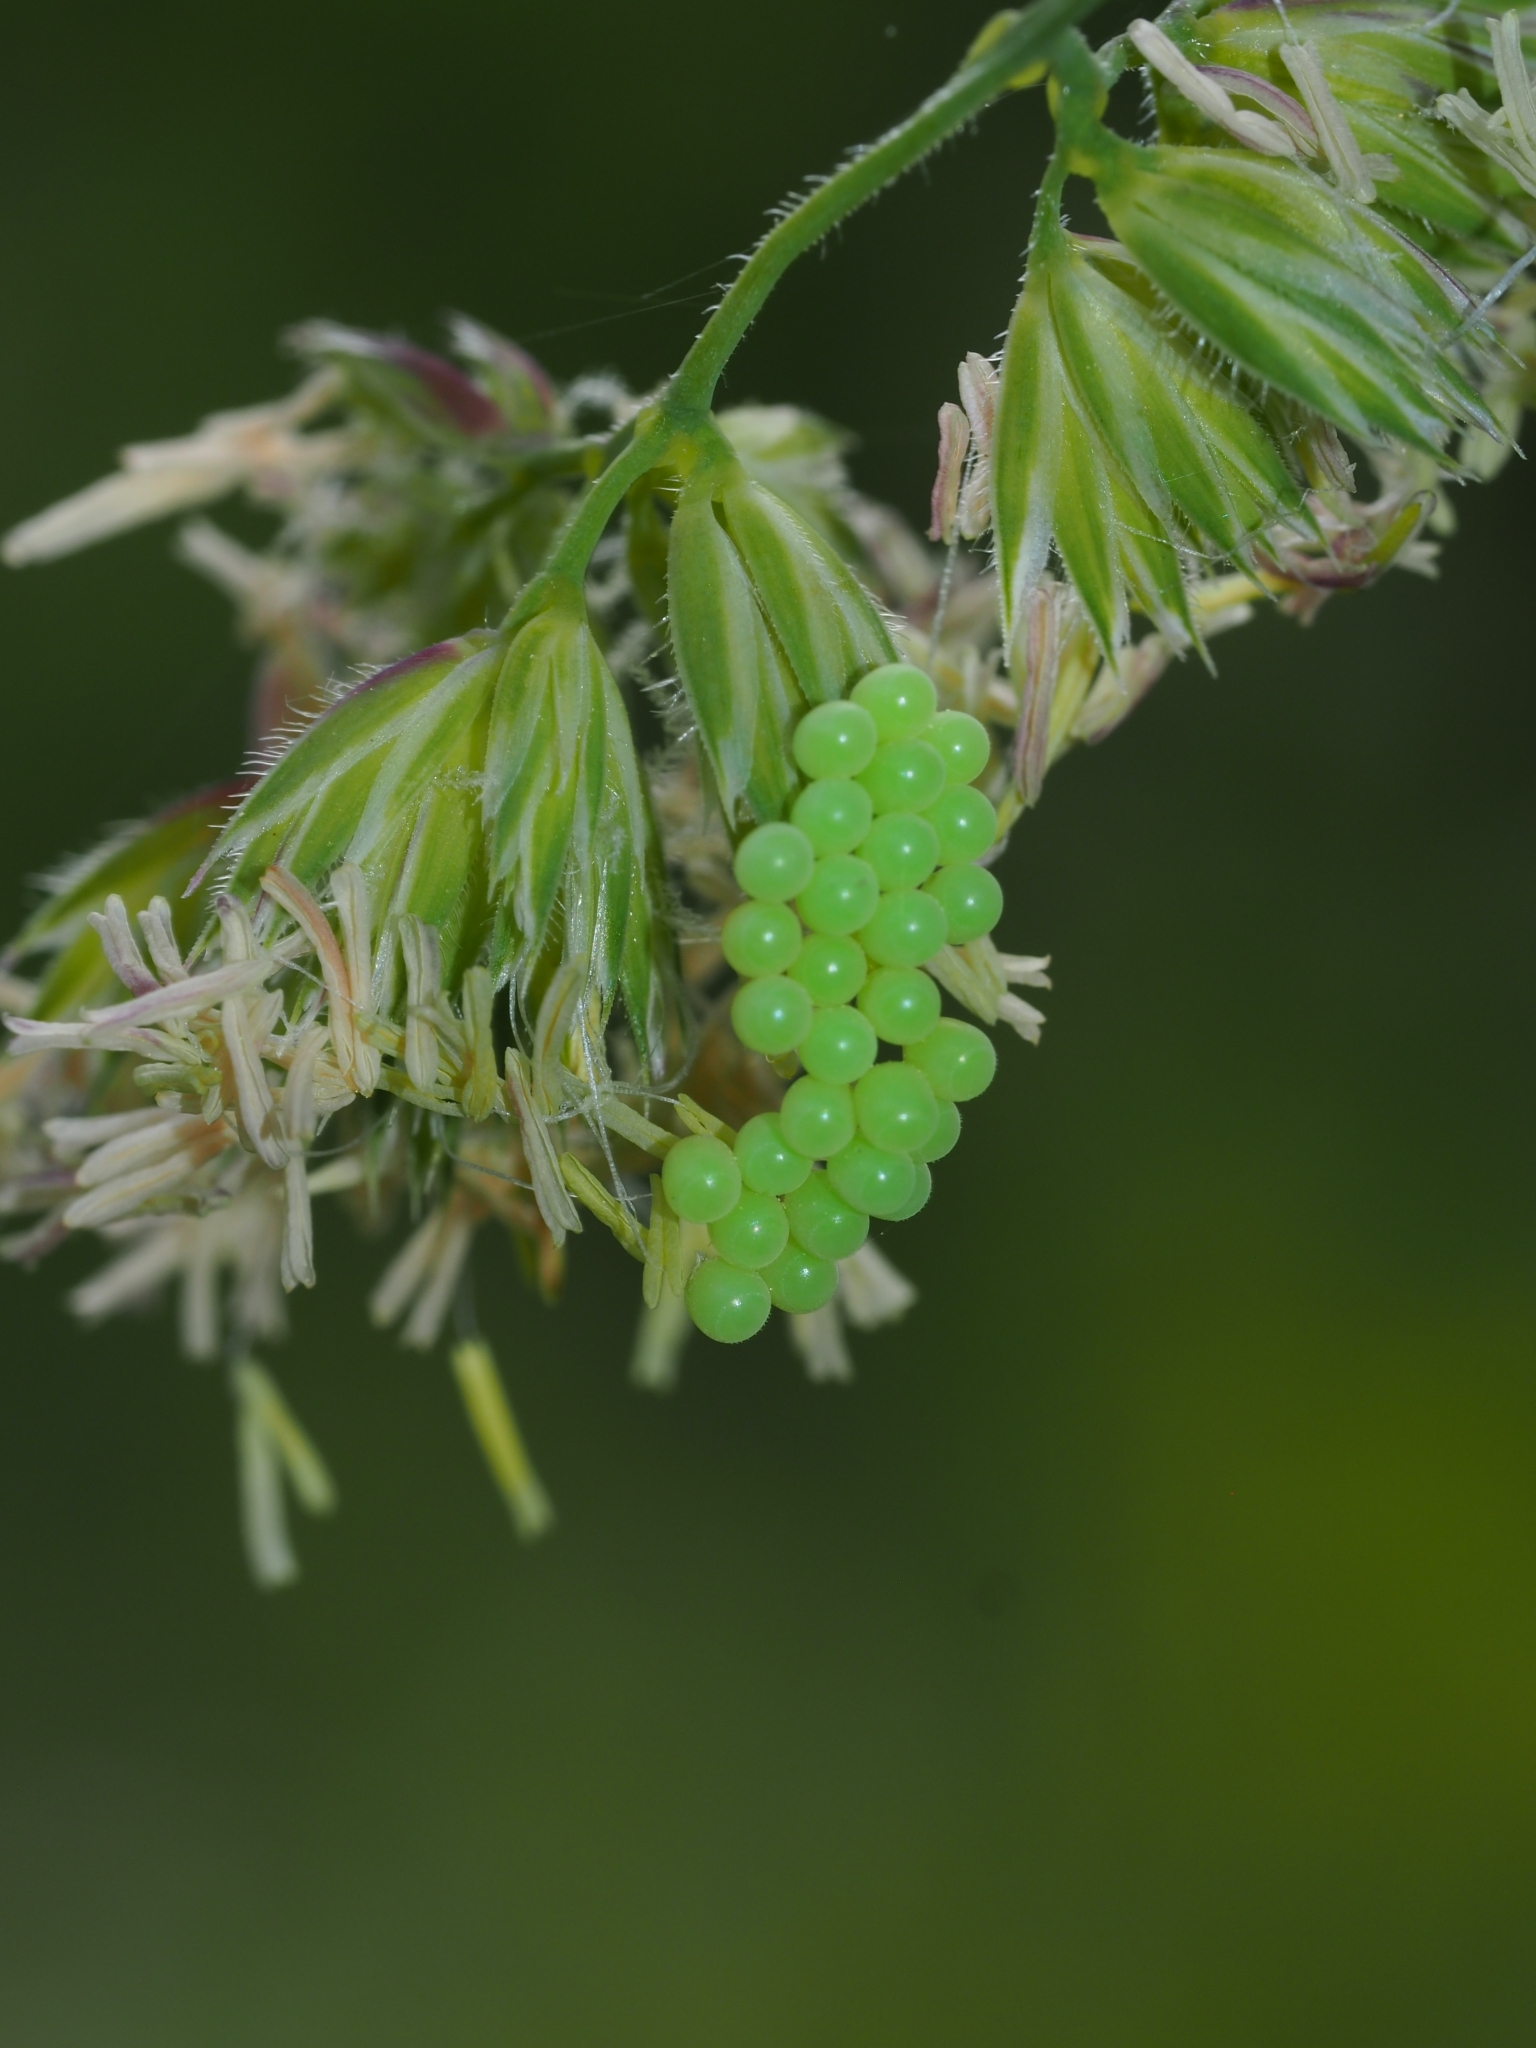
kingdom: Animalia
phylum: Arthropoda
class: Insecta
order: Hemiptera
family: Pentatomidae
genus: Palomena
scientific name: Palomena prasina
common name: Green shieldbug
